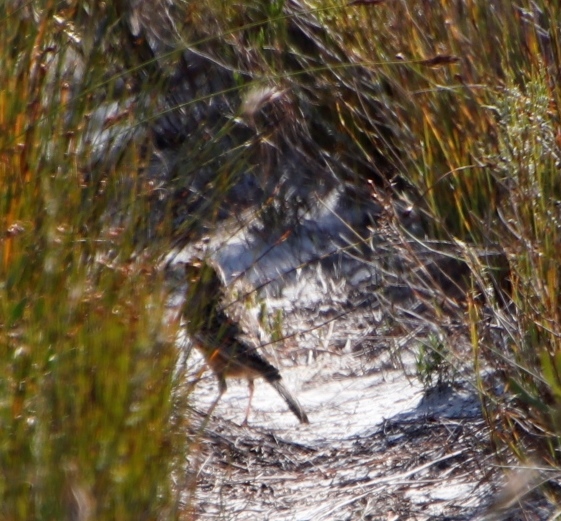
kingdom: Animalia
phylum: Chordata
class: Aves
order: Passeriformes
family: Alaudidae
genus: Mirafra
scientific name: Mirafra apiata
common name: Cape clapper lark
